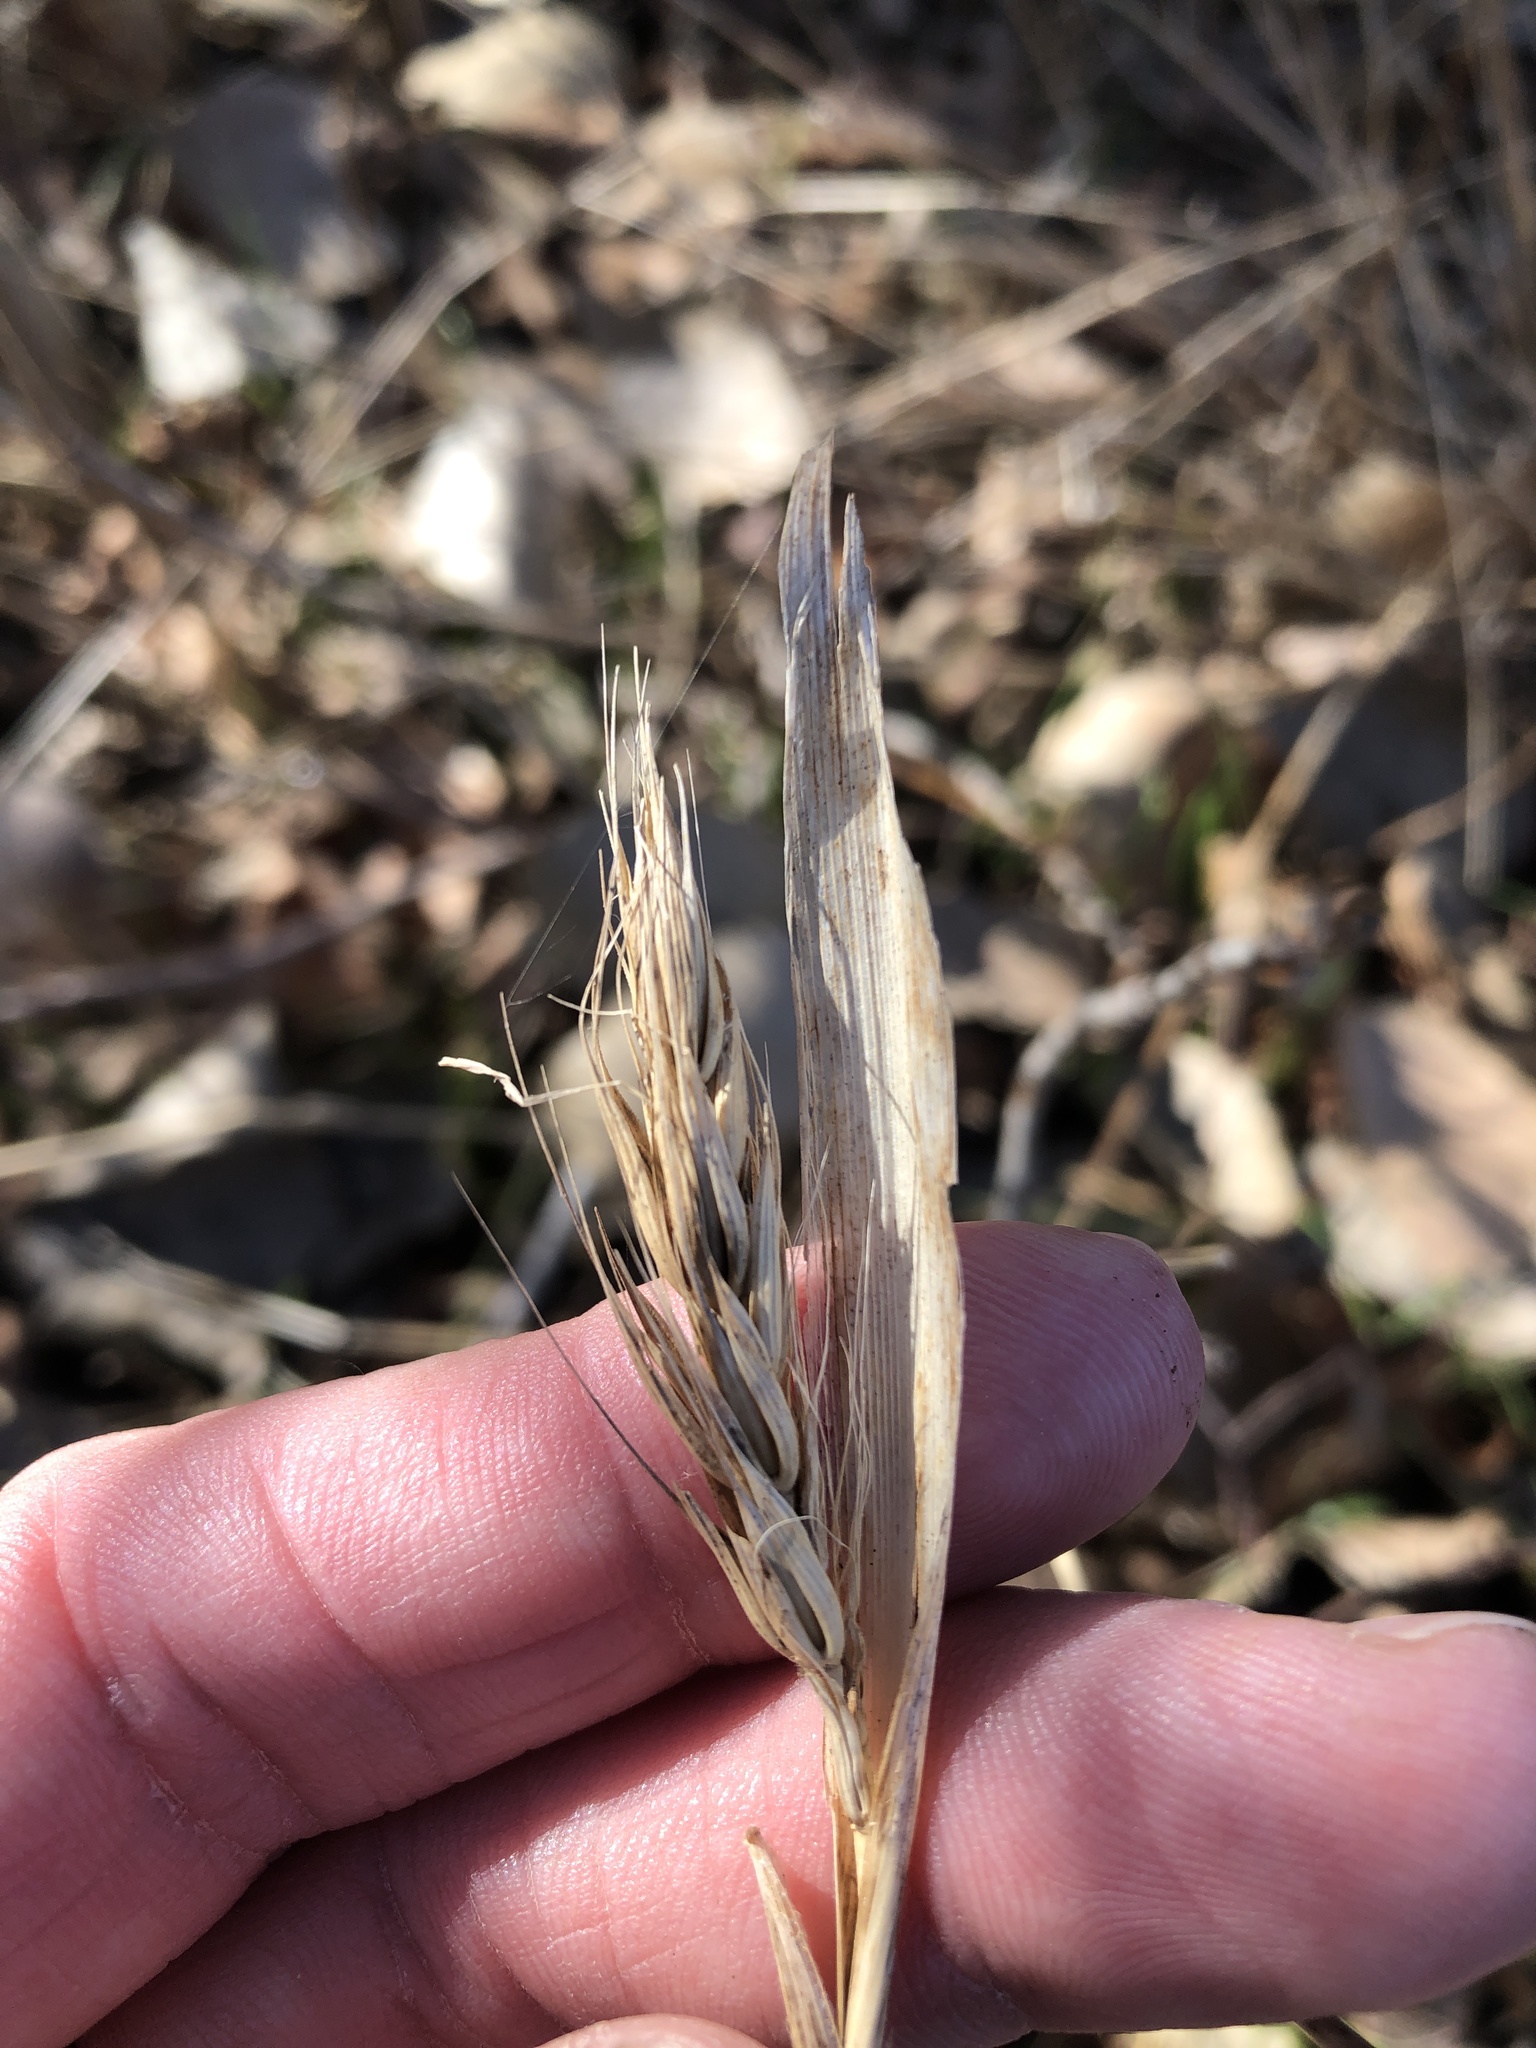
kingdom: Plantae
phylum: Tracheophyta
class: Liliopsida
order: Poales
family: Poaceae
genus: Elymus
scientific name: Elymus virginicus
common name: Common eastern wildrye
